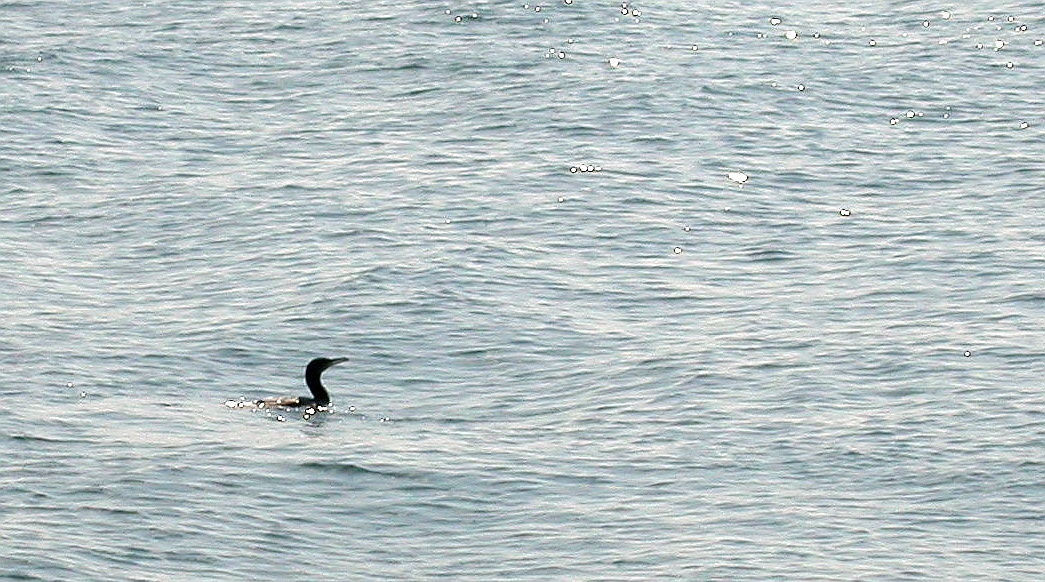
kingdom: Animalia
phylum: Chordata
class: Aves
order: Suliformes
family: Phalacrocoracidae
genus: Phalacrocorax
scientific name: Phalacrocorax carbo
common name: Great cormorant
